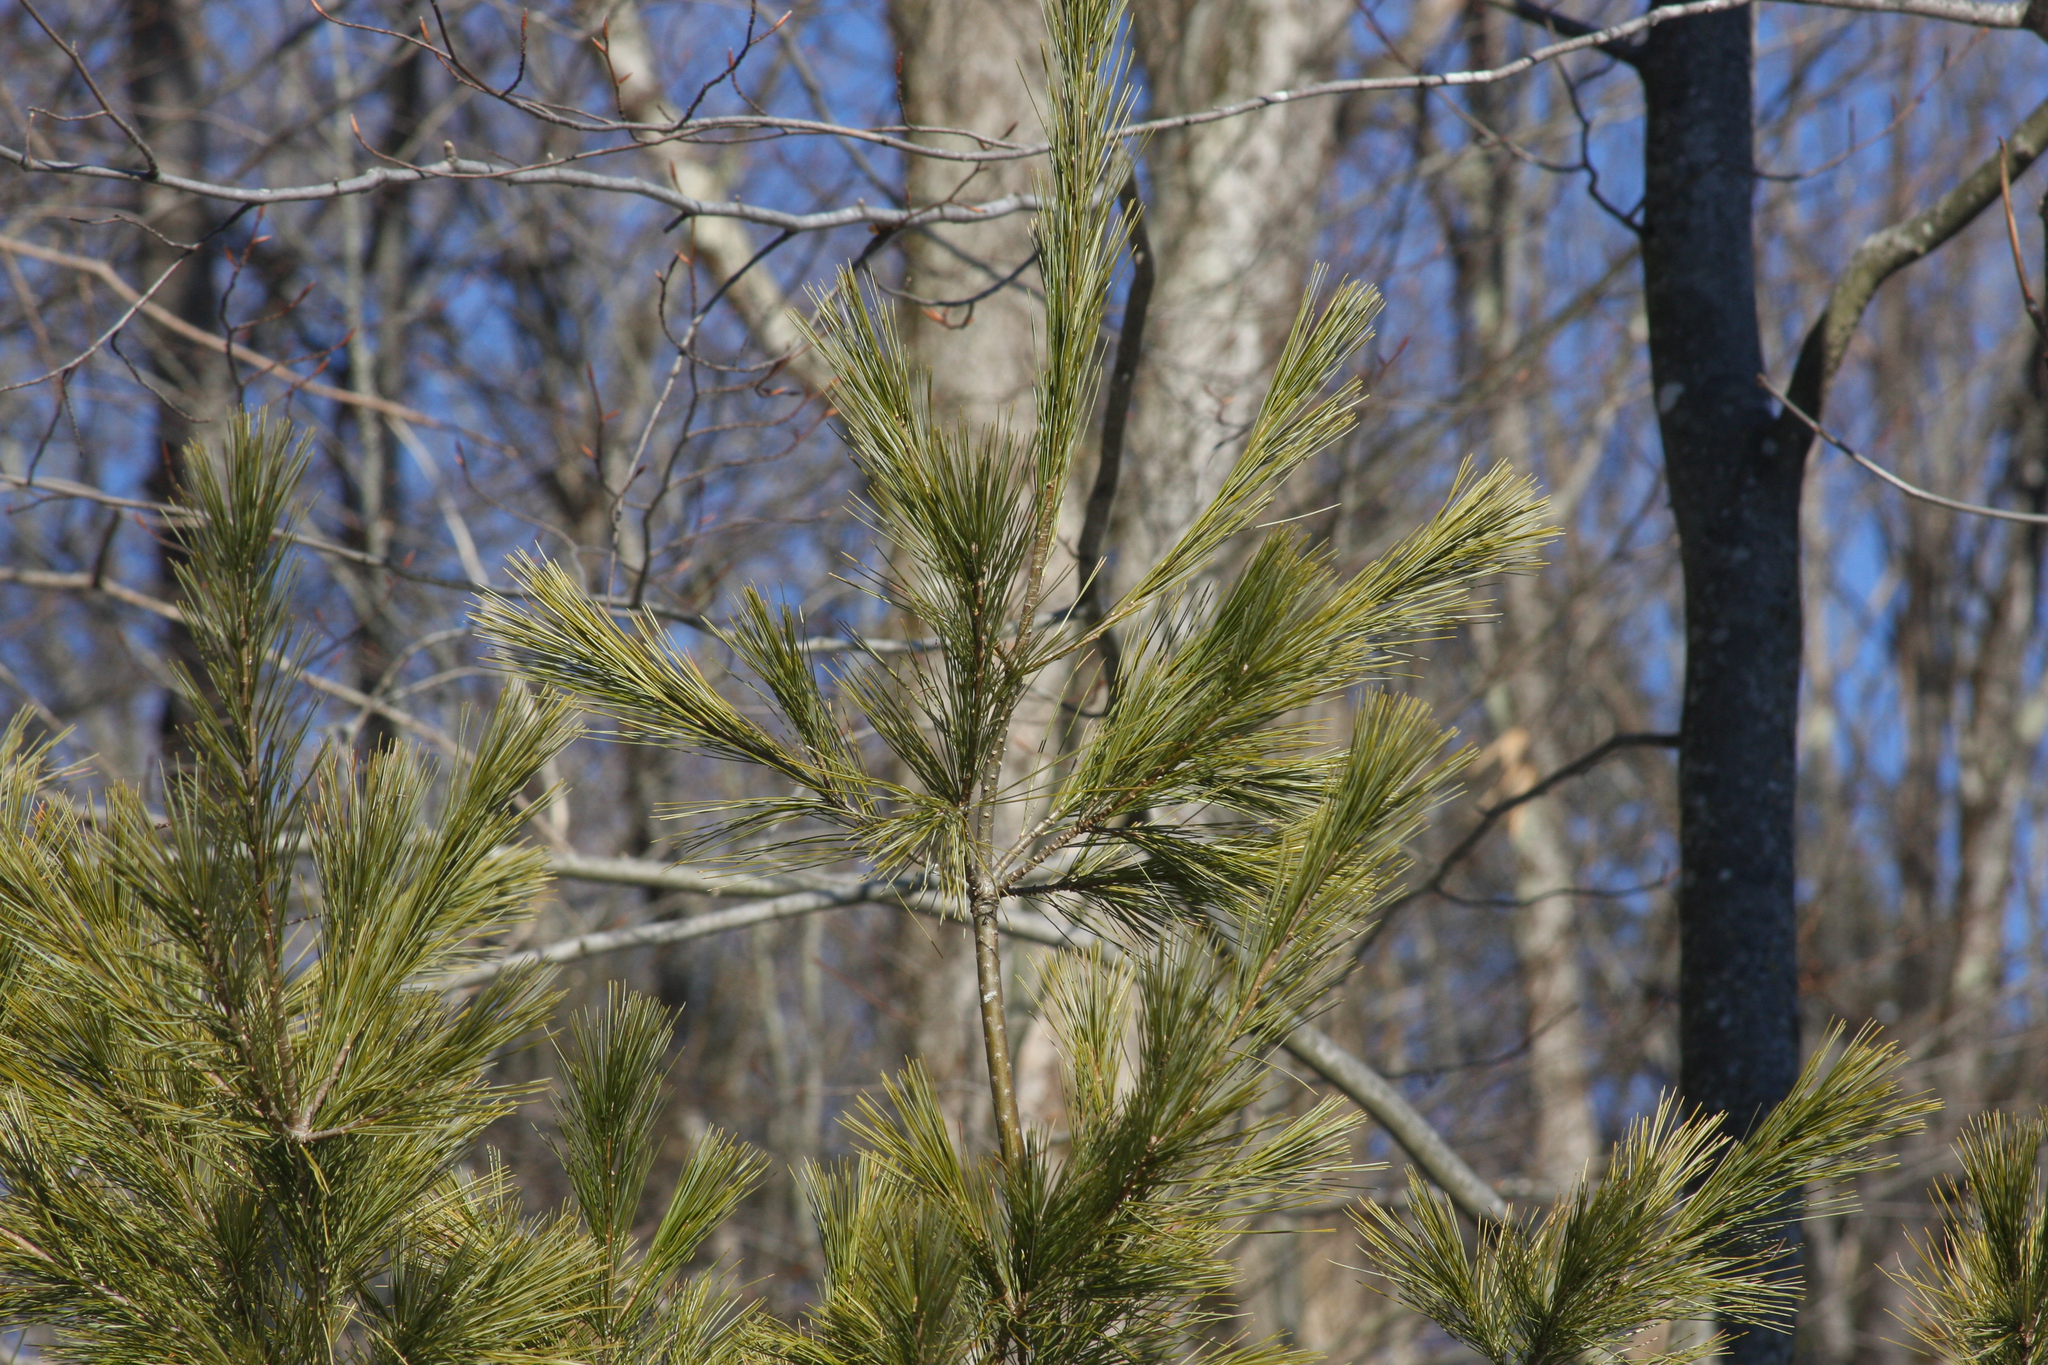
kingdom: Plantae
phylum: Tracheophyta
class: Pinopsida
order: Pinales
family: Pinaceae
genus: Pinus
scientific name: Pinus strobus
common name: Weymouth pine
